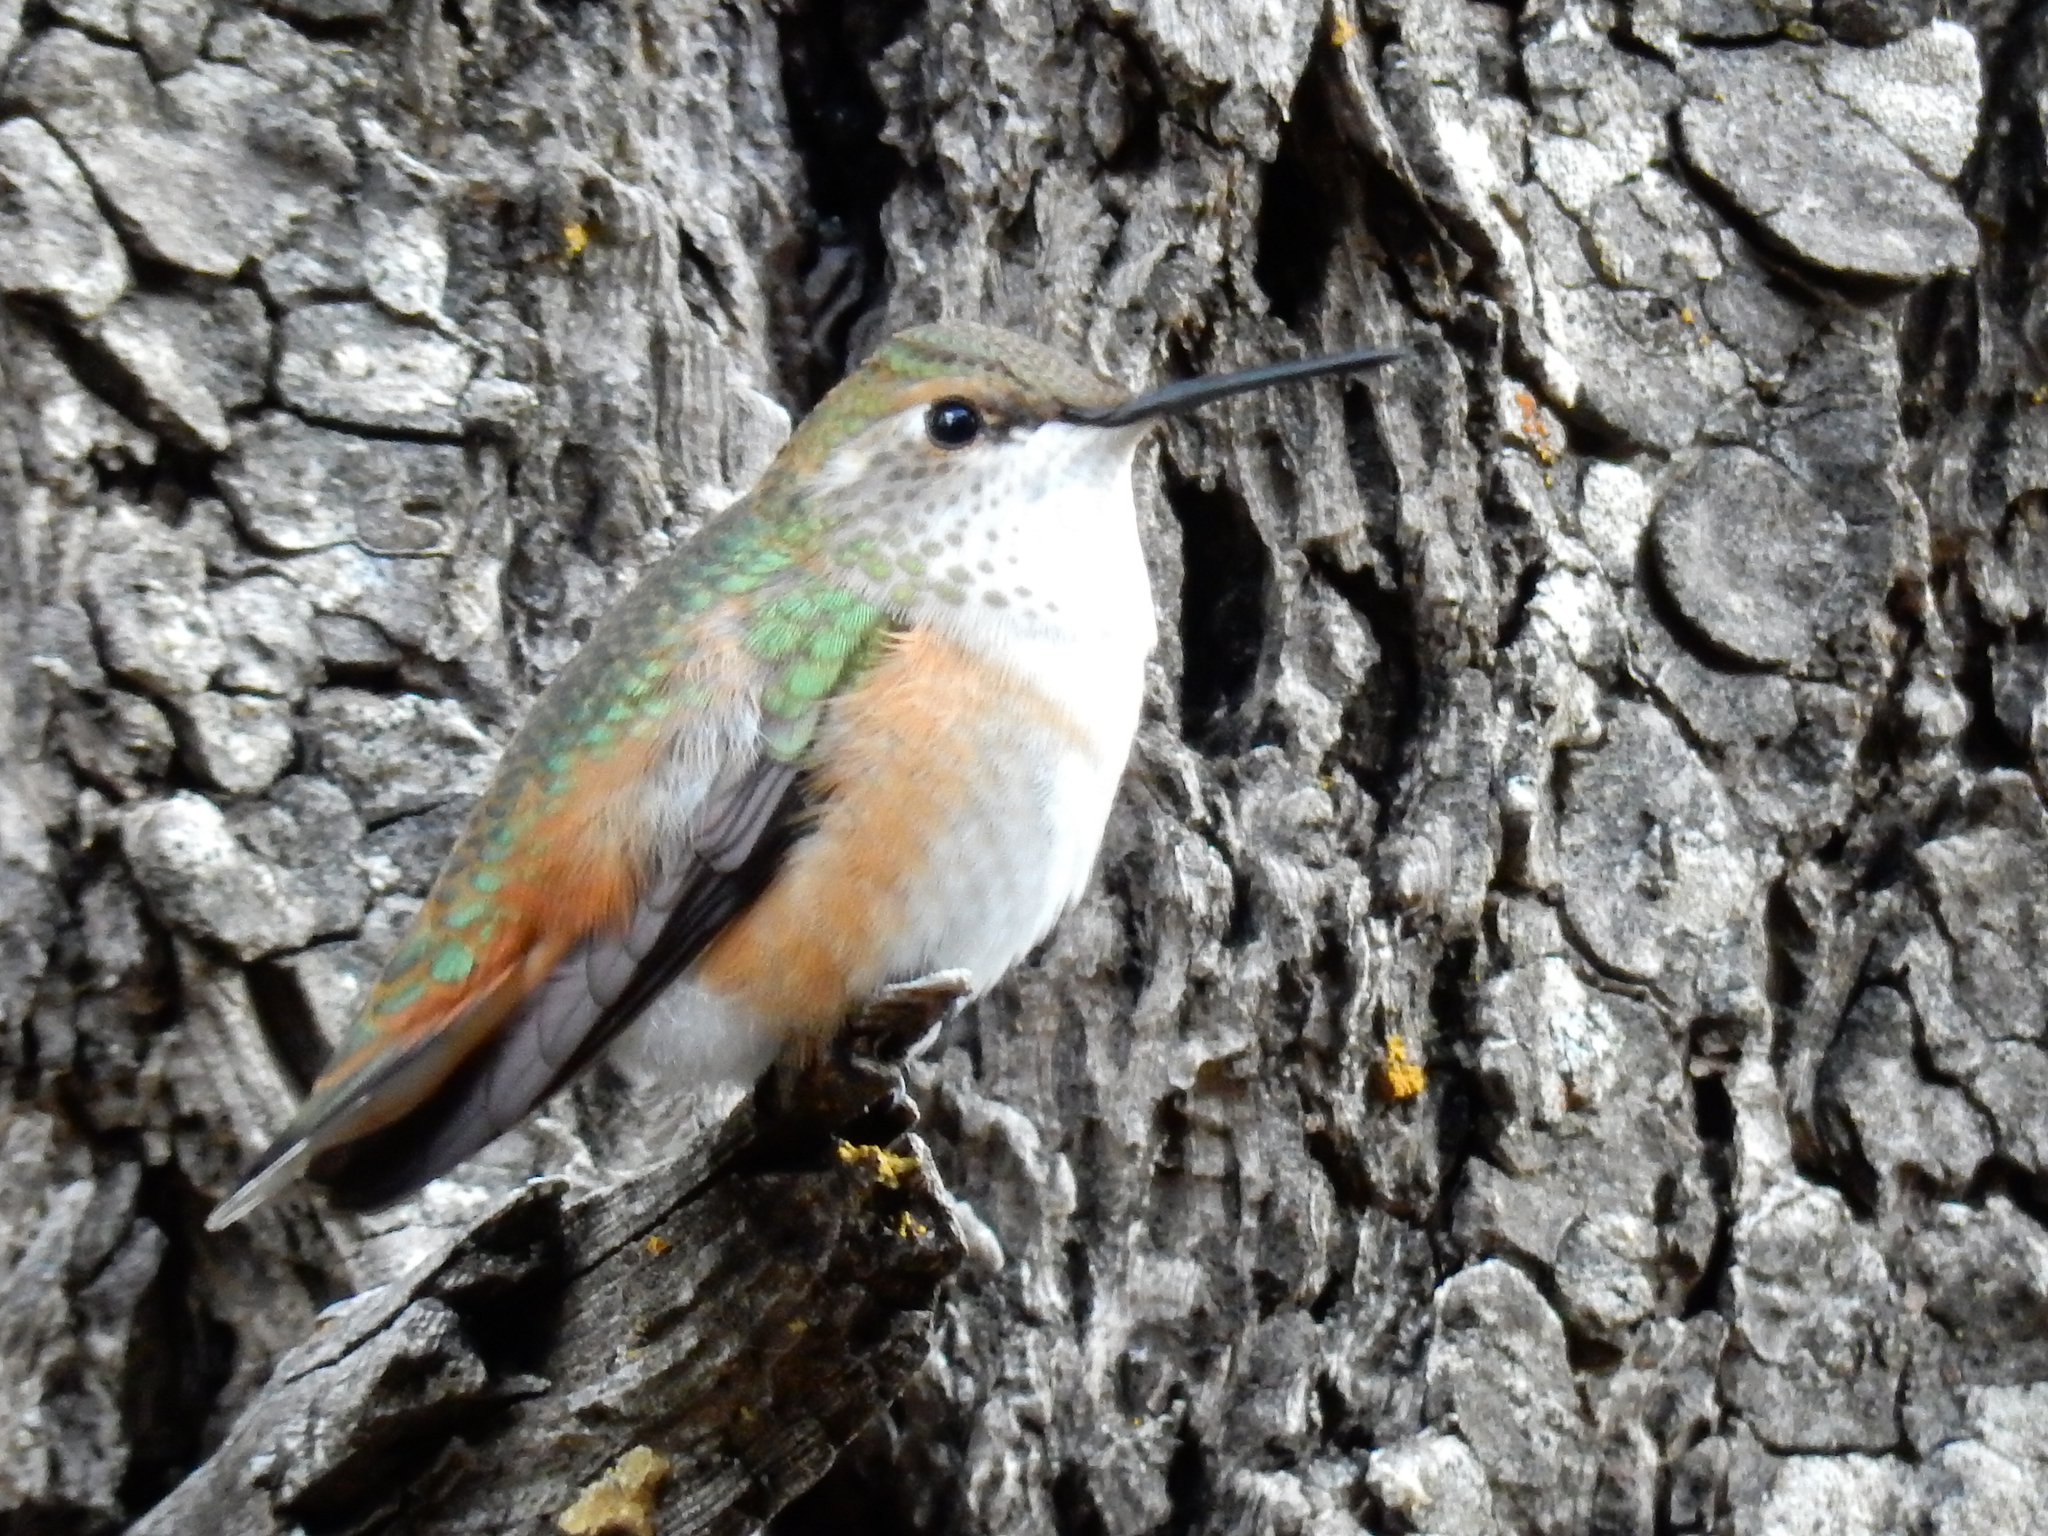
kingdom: Animalia
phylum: Chordata
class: Aves
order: Apodiformes
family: Trochilidae
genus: Selasphorus
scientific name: Selasphorus rufus
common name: Rufous hummingbird
